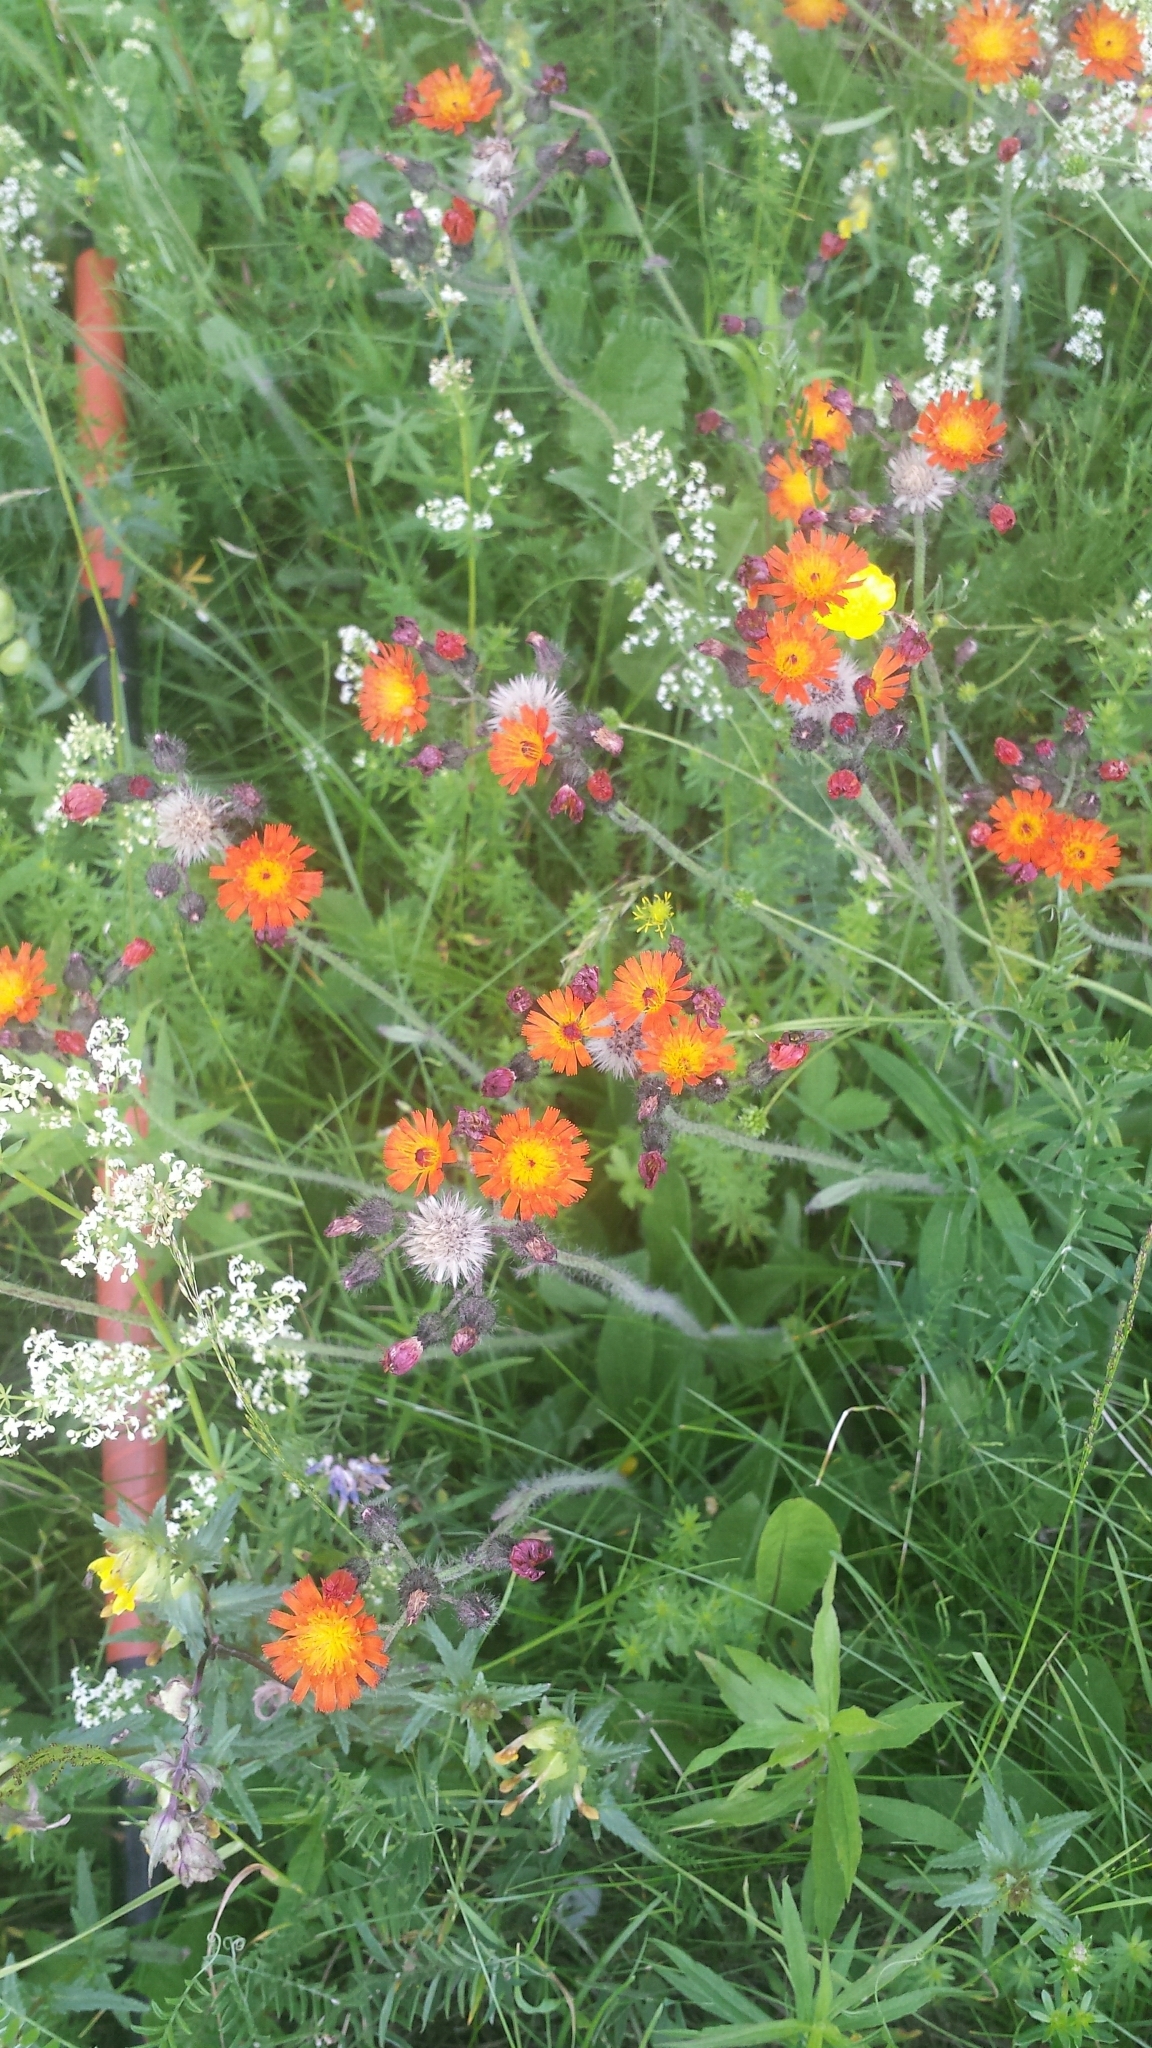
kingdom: Plantae
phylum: Tracheophyta
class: Magnoliopsida
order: Asterales
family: Asteraceae
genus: Pilosella
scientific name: Pilosella aurantiaca
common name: Fox-and-cubs
